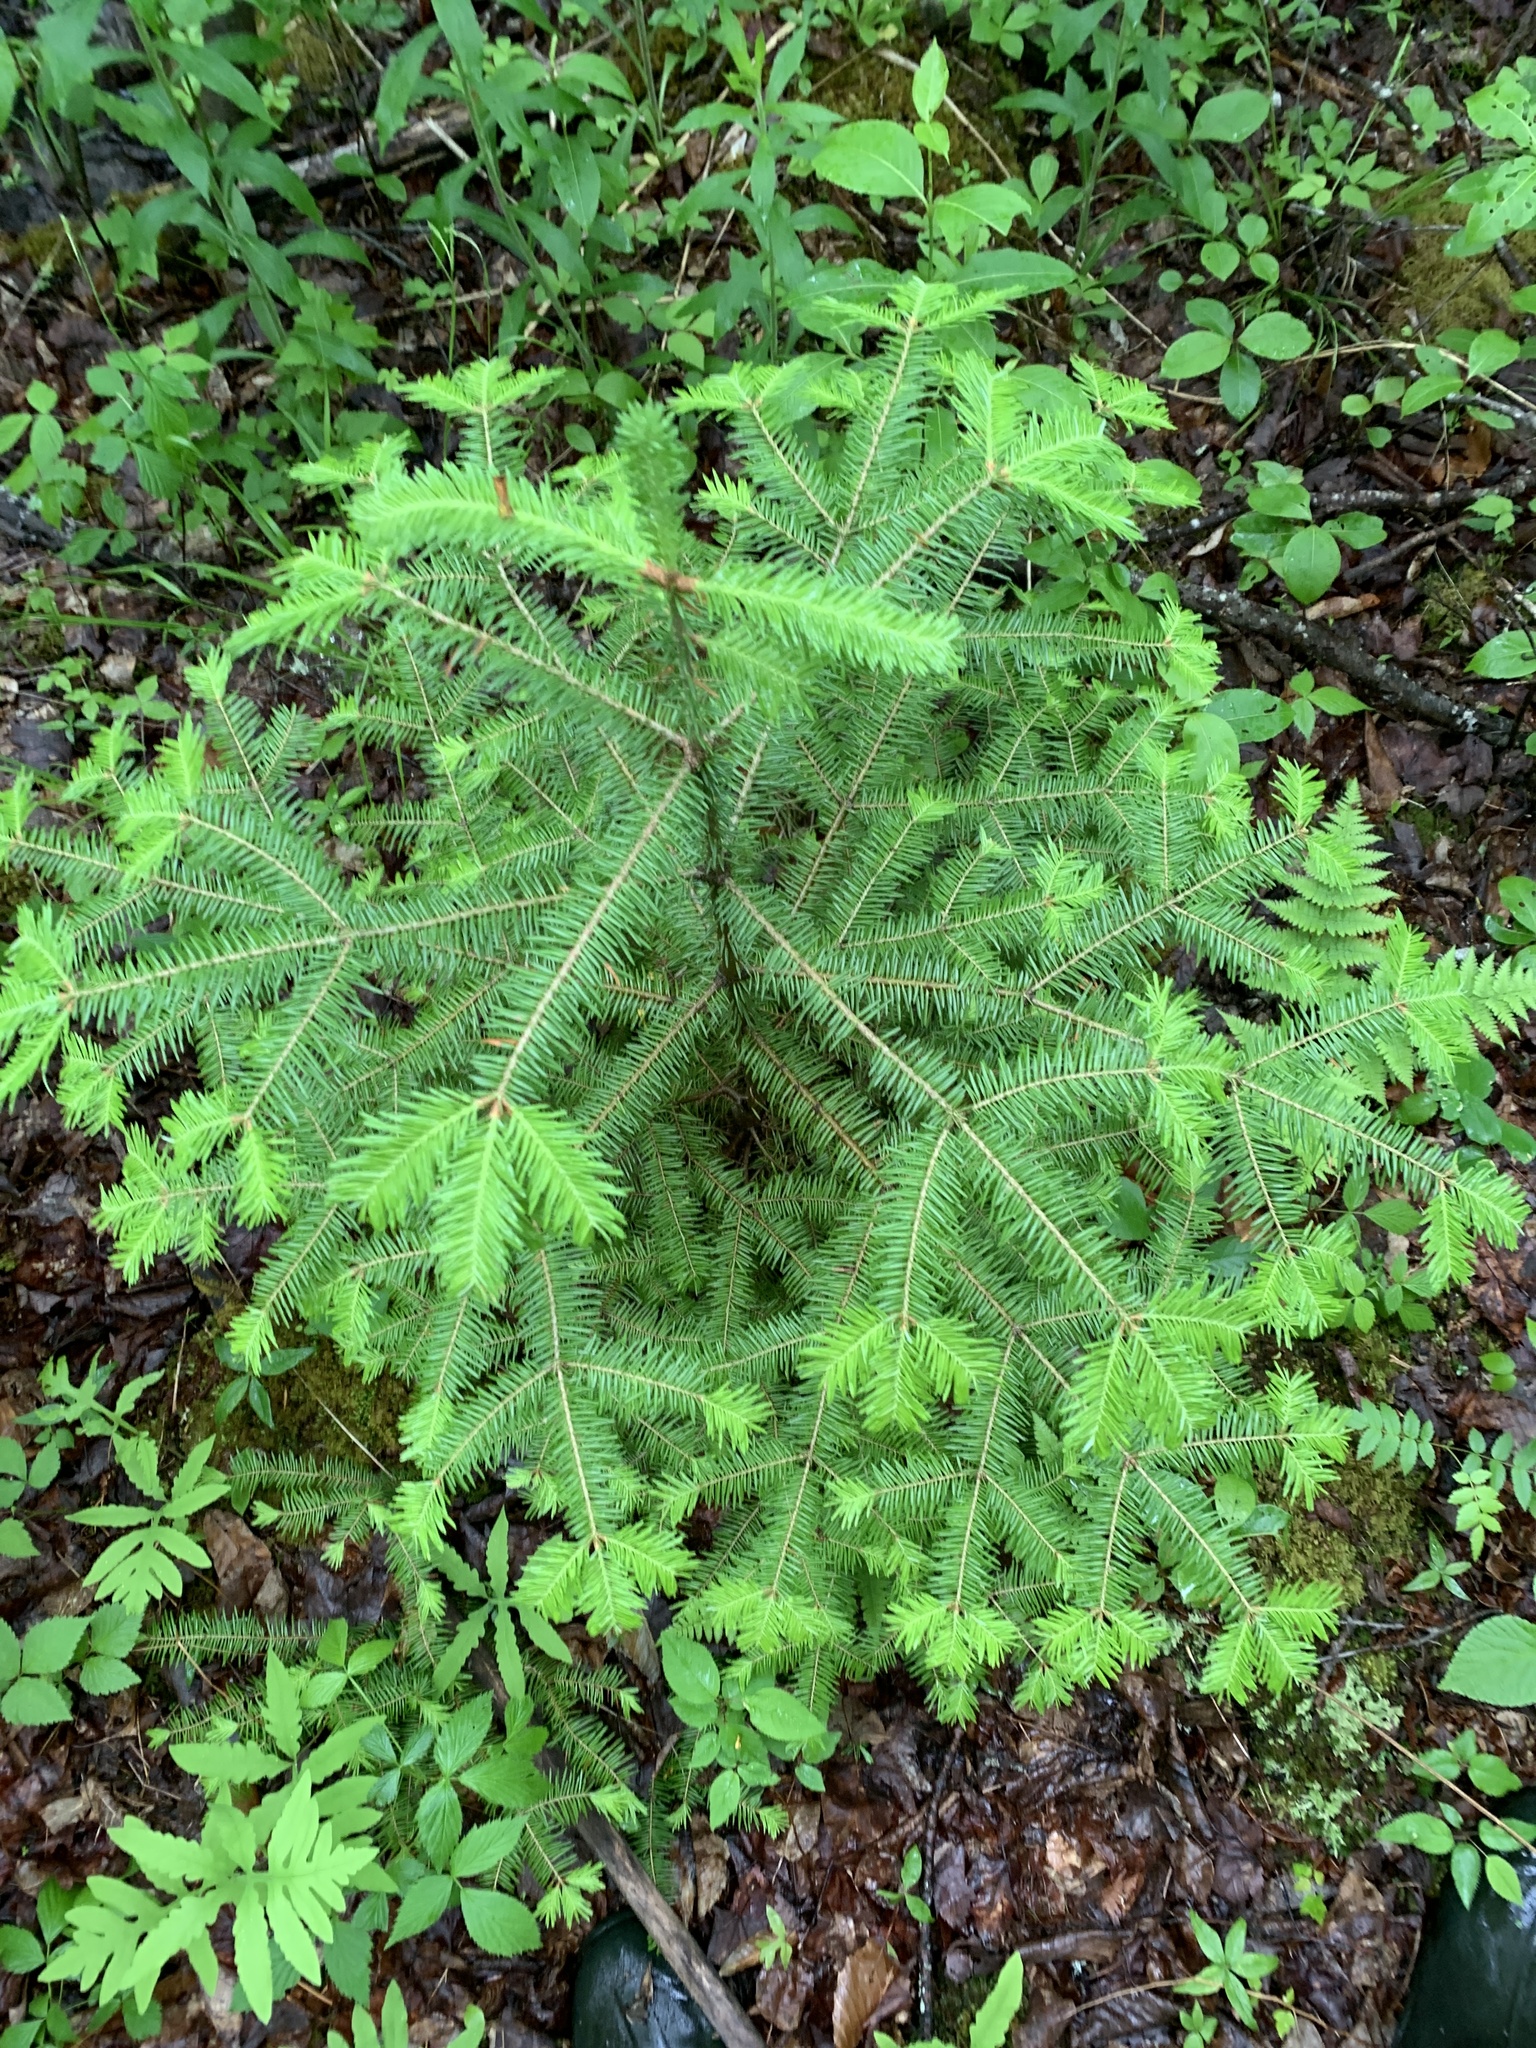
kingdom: Plantae
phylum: Tracheophyta
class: Pinopsida
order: Pinales
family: Pinaceae
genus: Abies
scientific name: Abies balsamea
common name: Balsam fir
